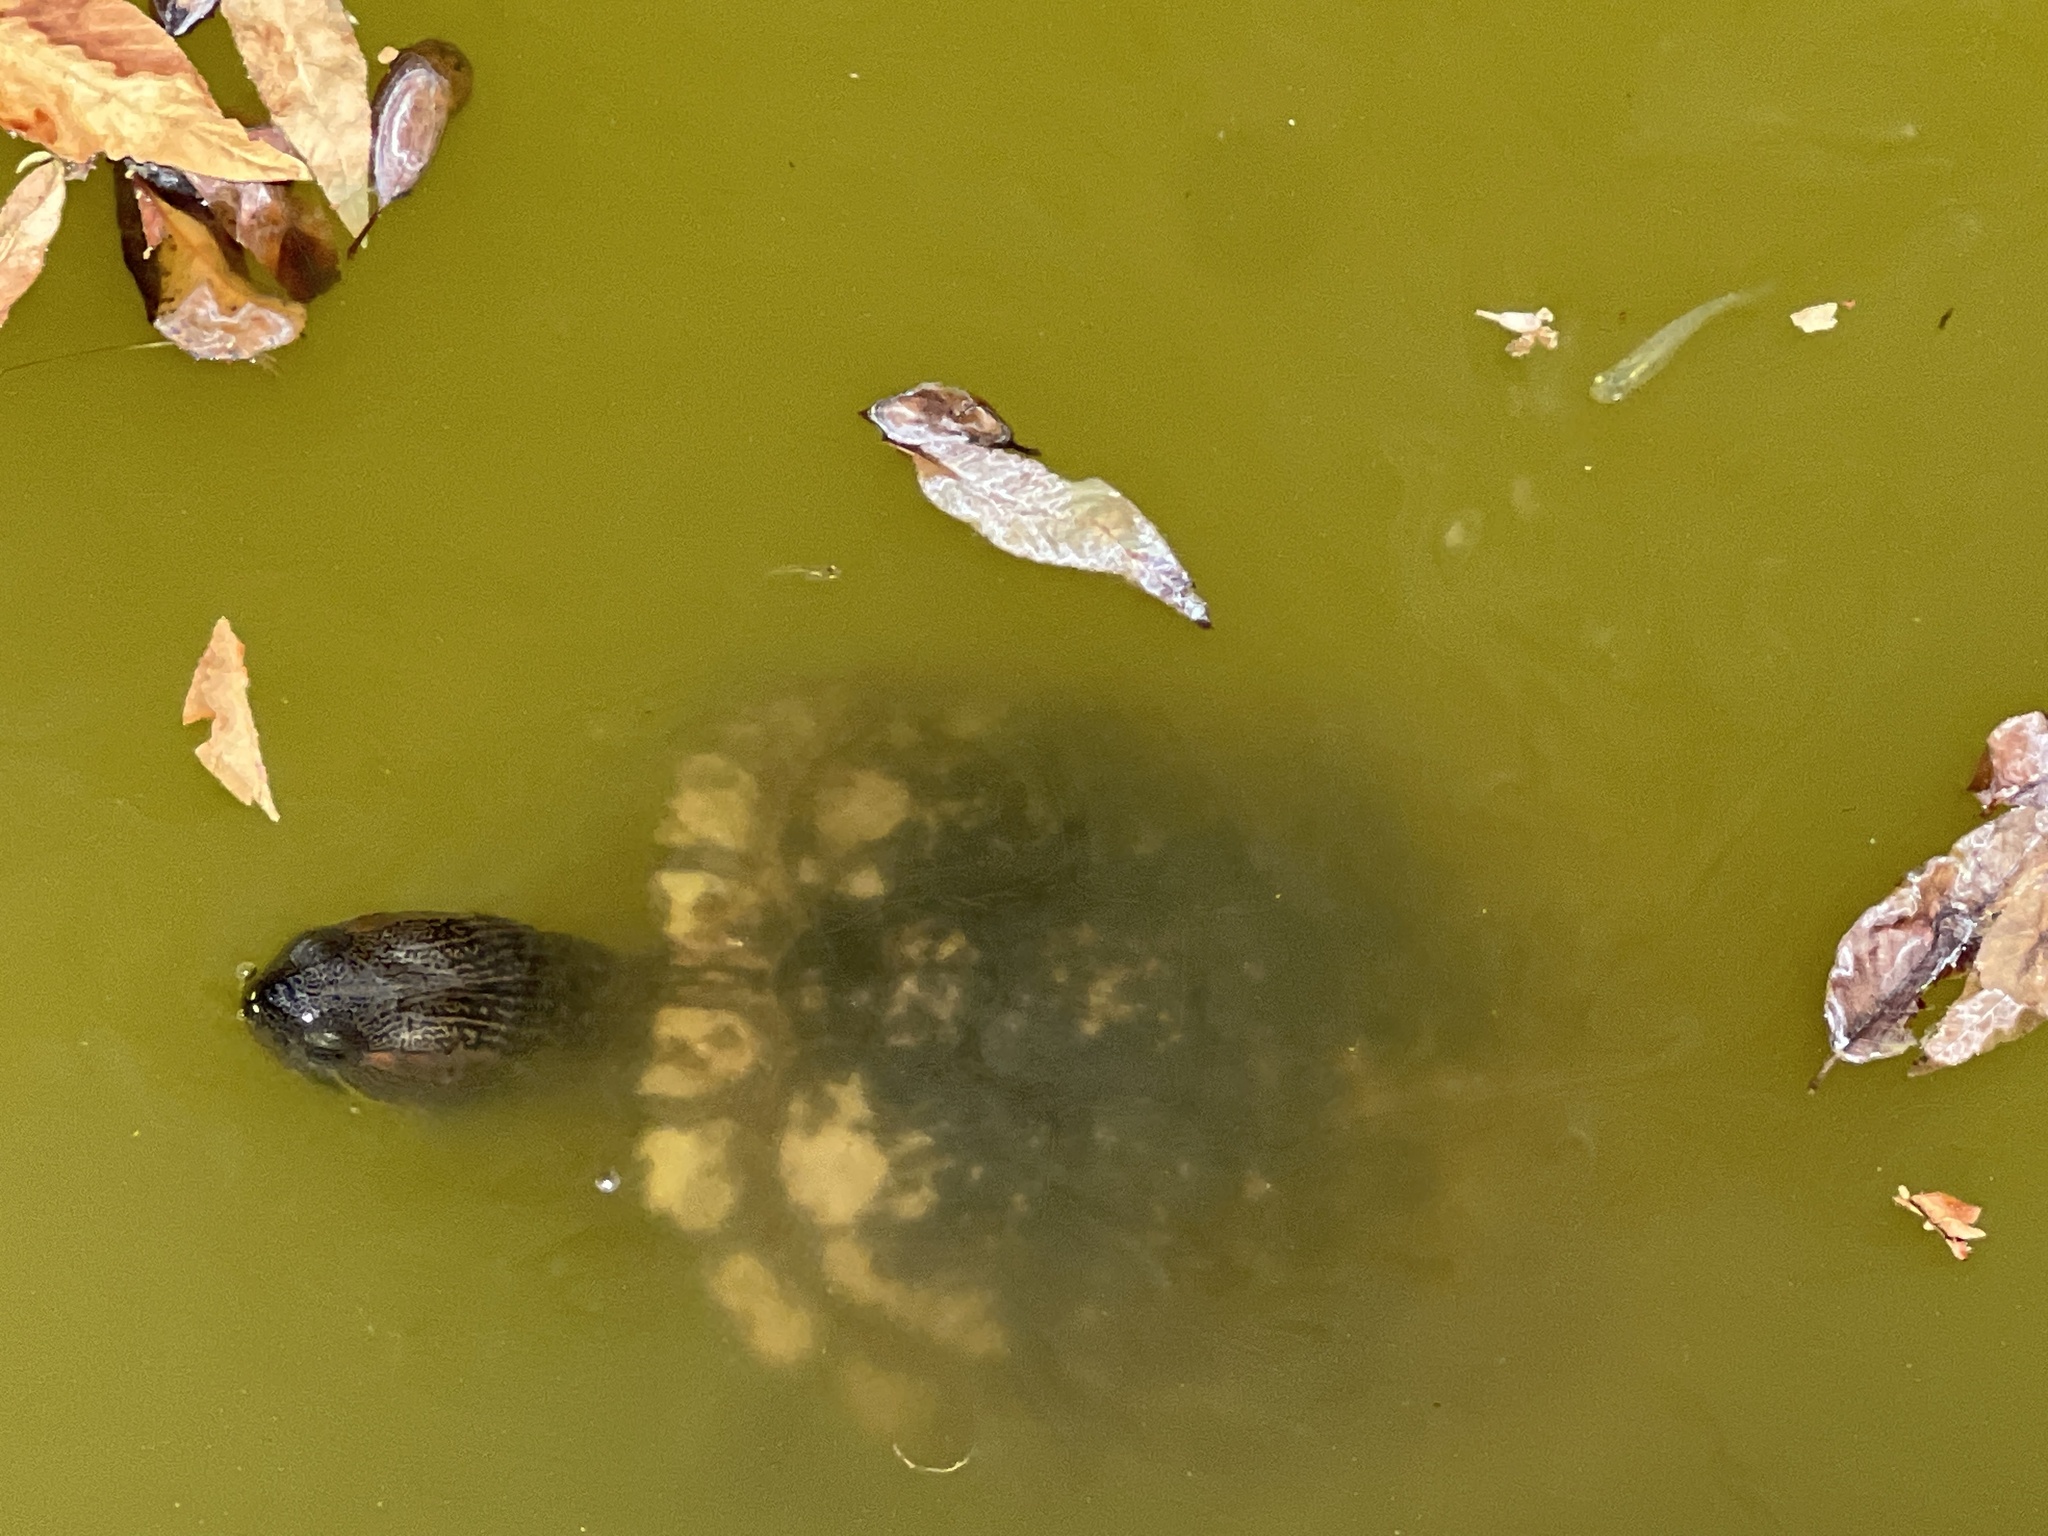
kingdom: Animalia
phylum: Chordata
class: Testudines
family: Emydidae
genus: Trachemys
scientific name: Trachemys scripta
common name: Slider
